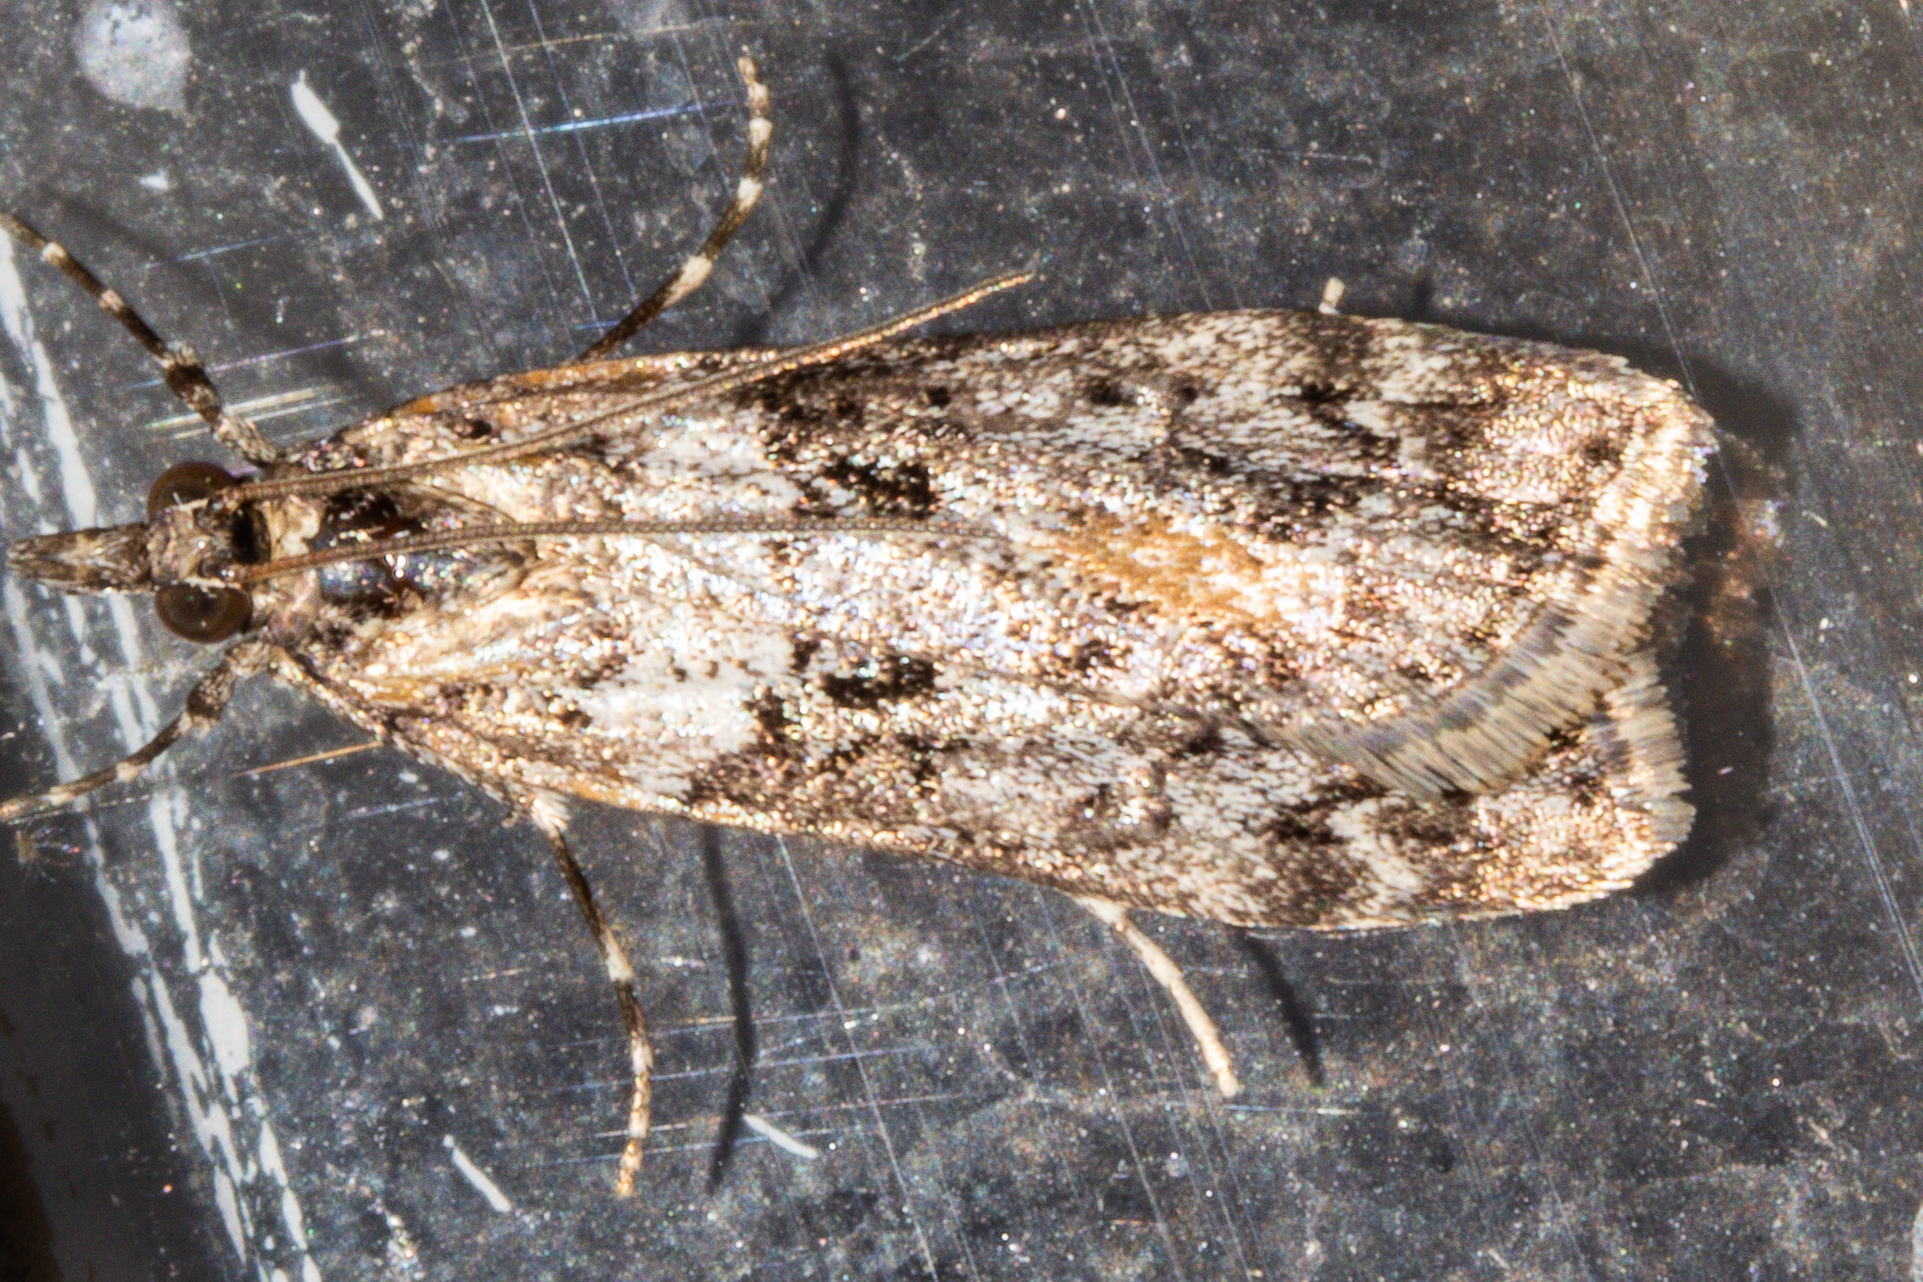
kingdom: Animalia
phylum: Arthropoda
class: Insecta
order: Lepidoptera
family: Crambidae
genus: Eudonia
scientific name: Eudonia submarginalis
